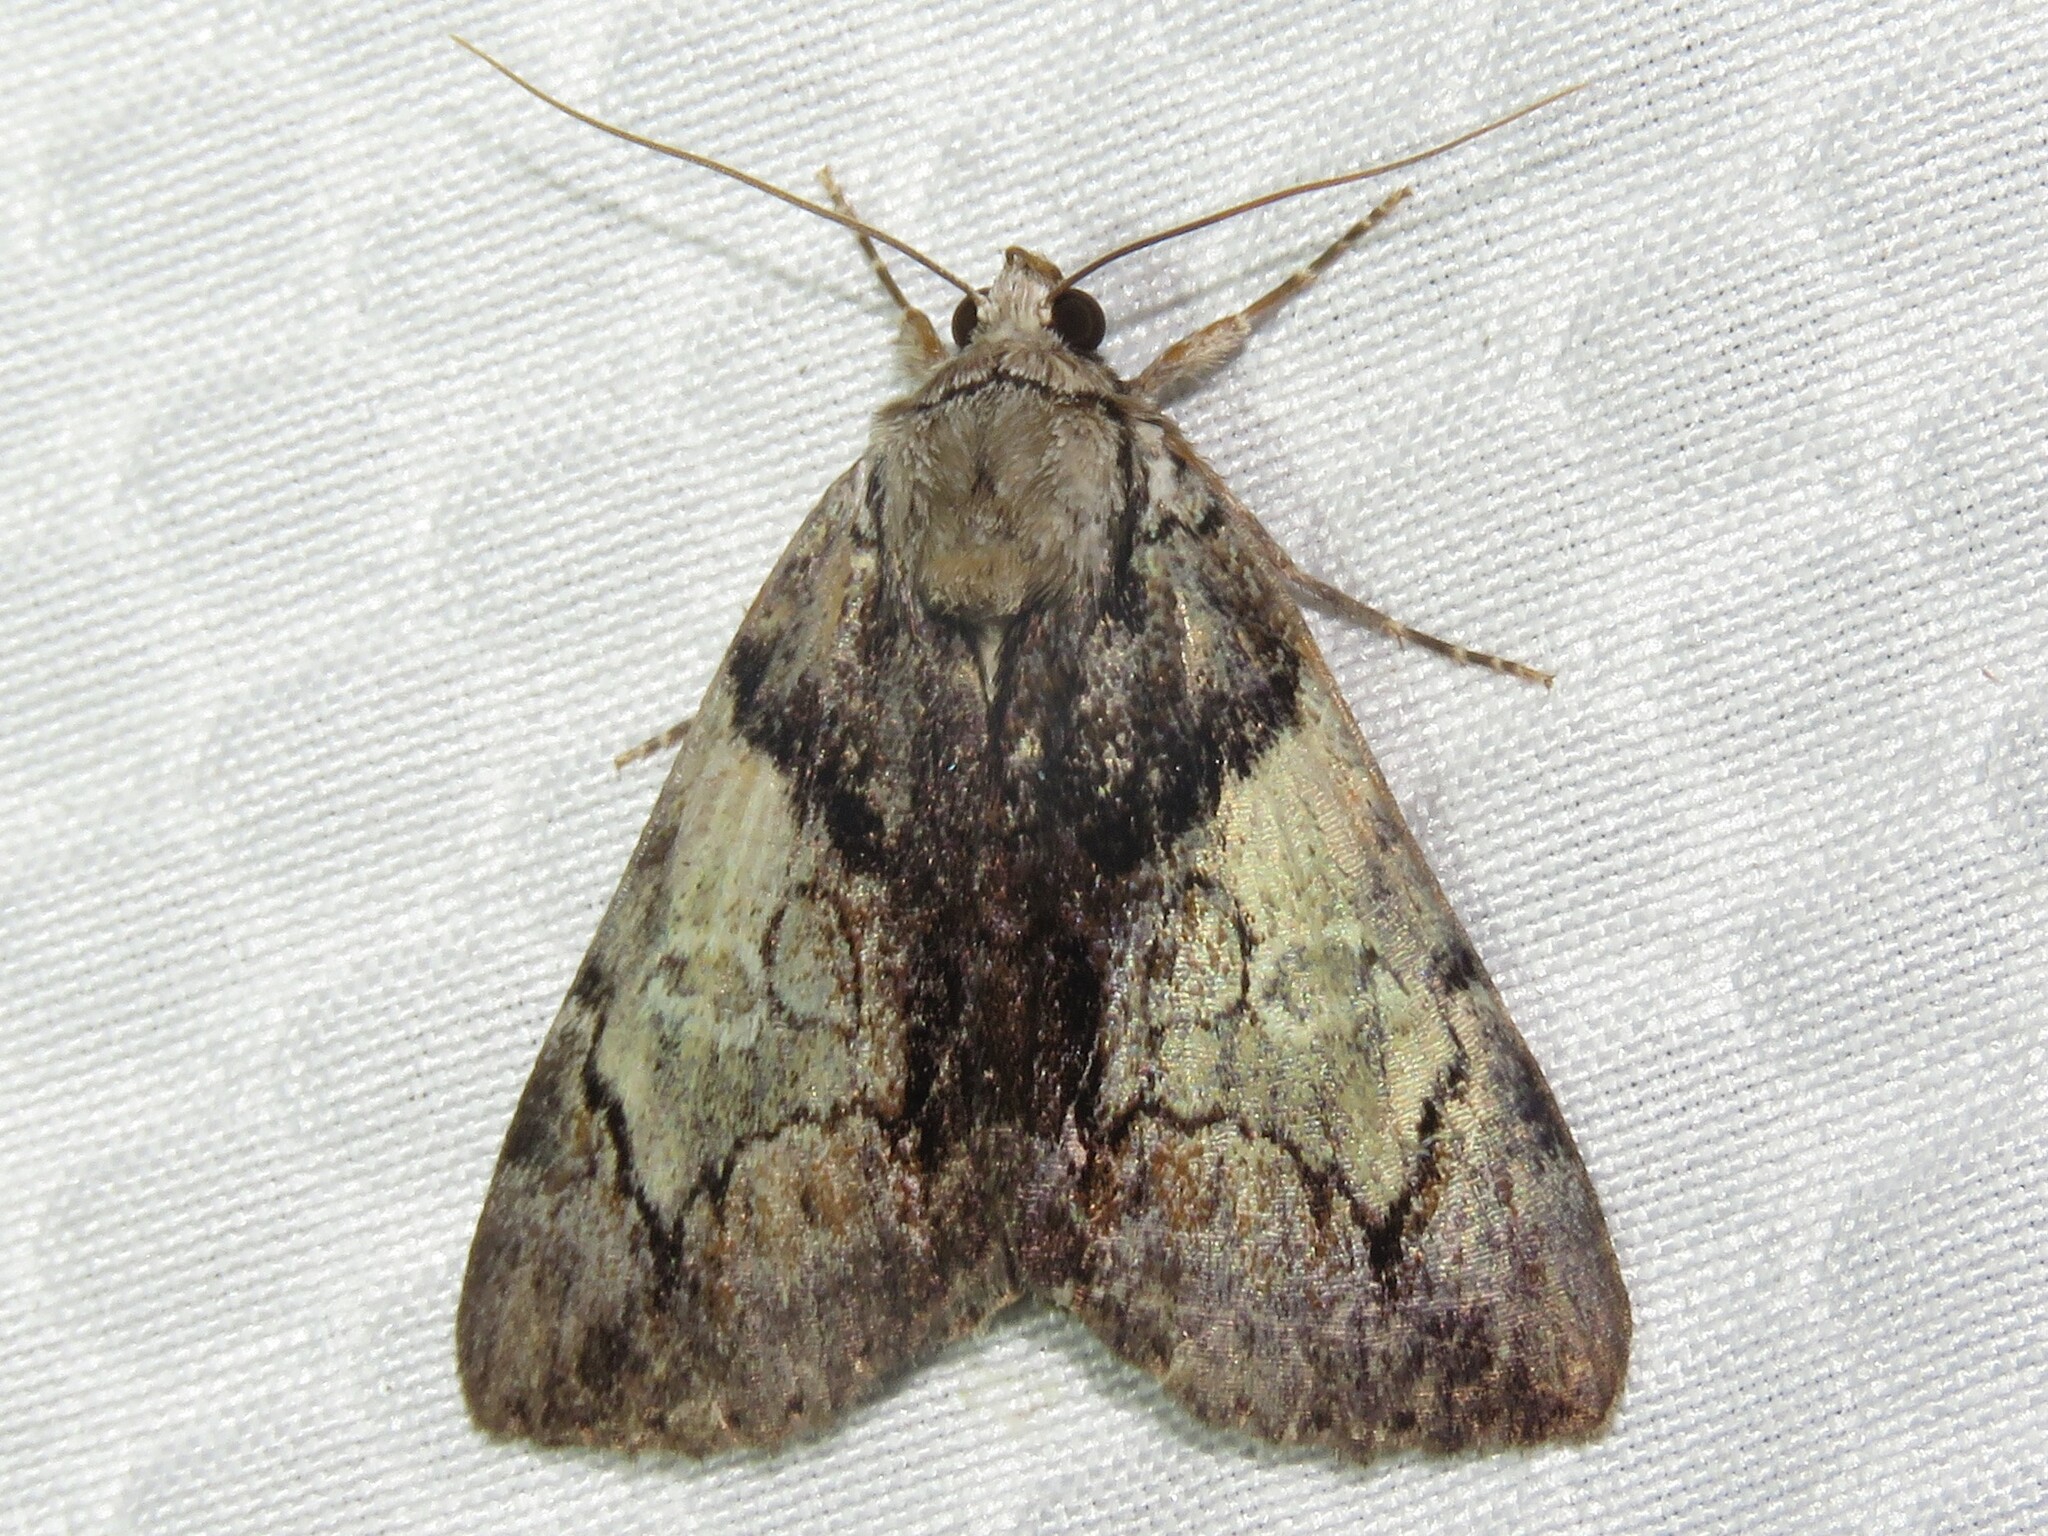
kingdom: Animalia
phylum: Arthropoda
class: Insecta
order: Lepidoptera
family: Erebidae
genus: Catocala
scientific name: Catocala crataegi
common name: Hawthorn underwing moth
